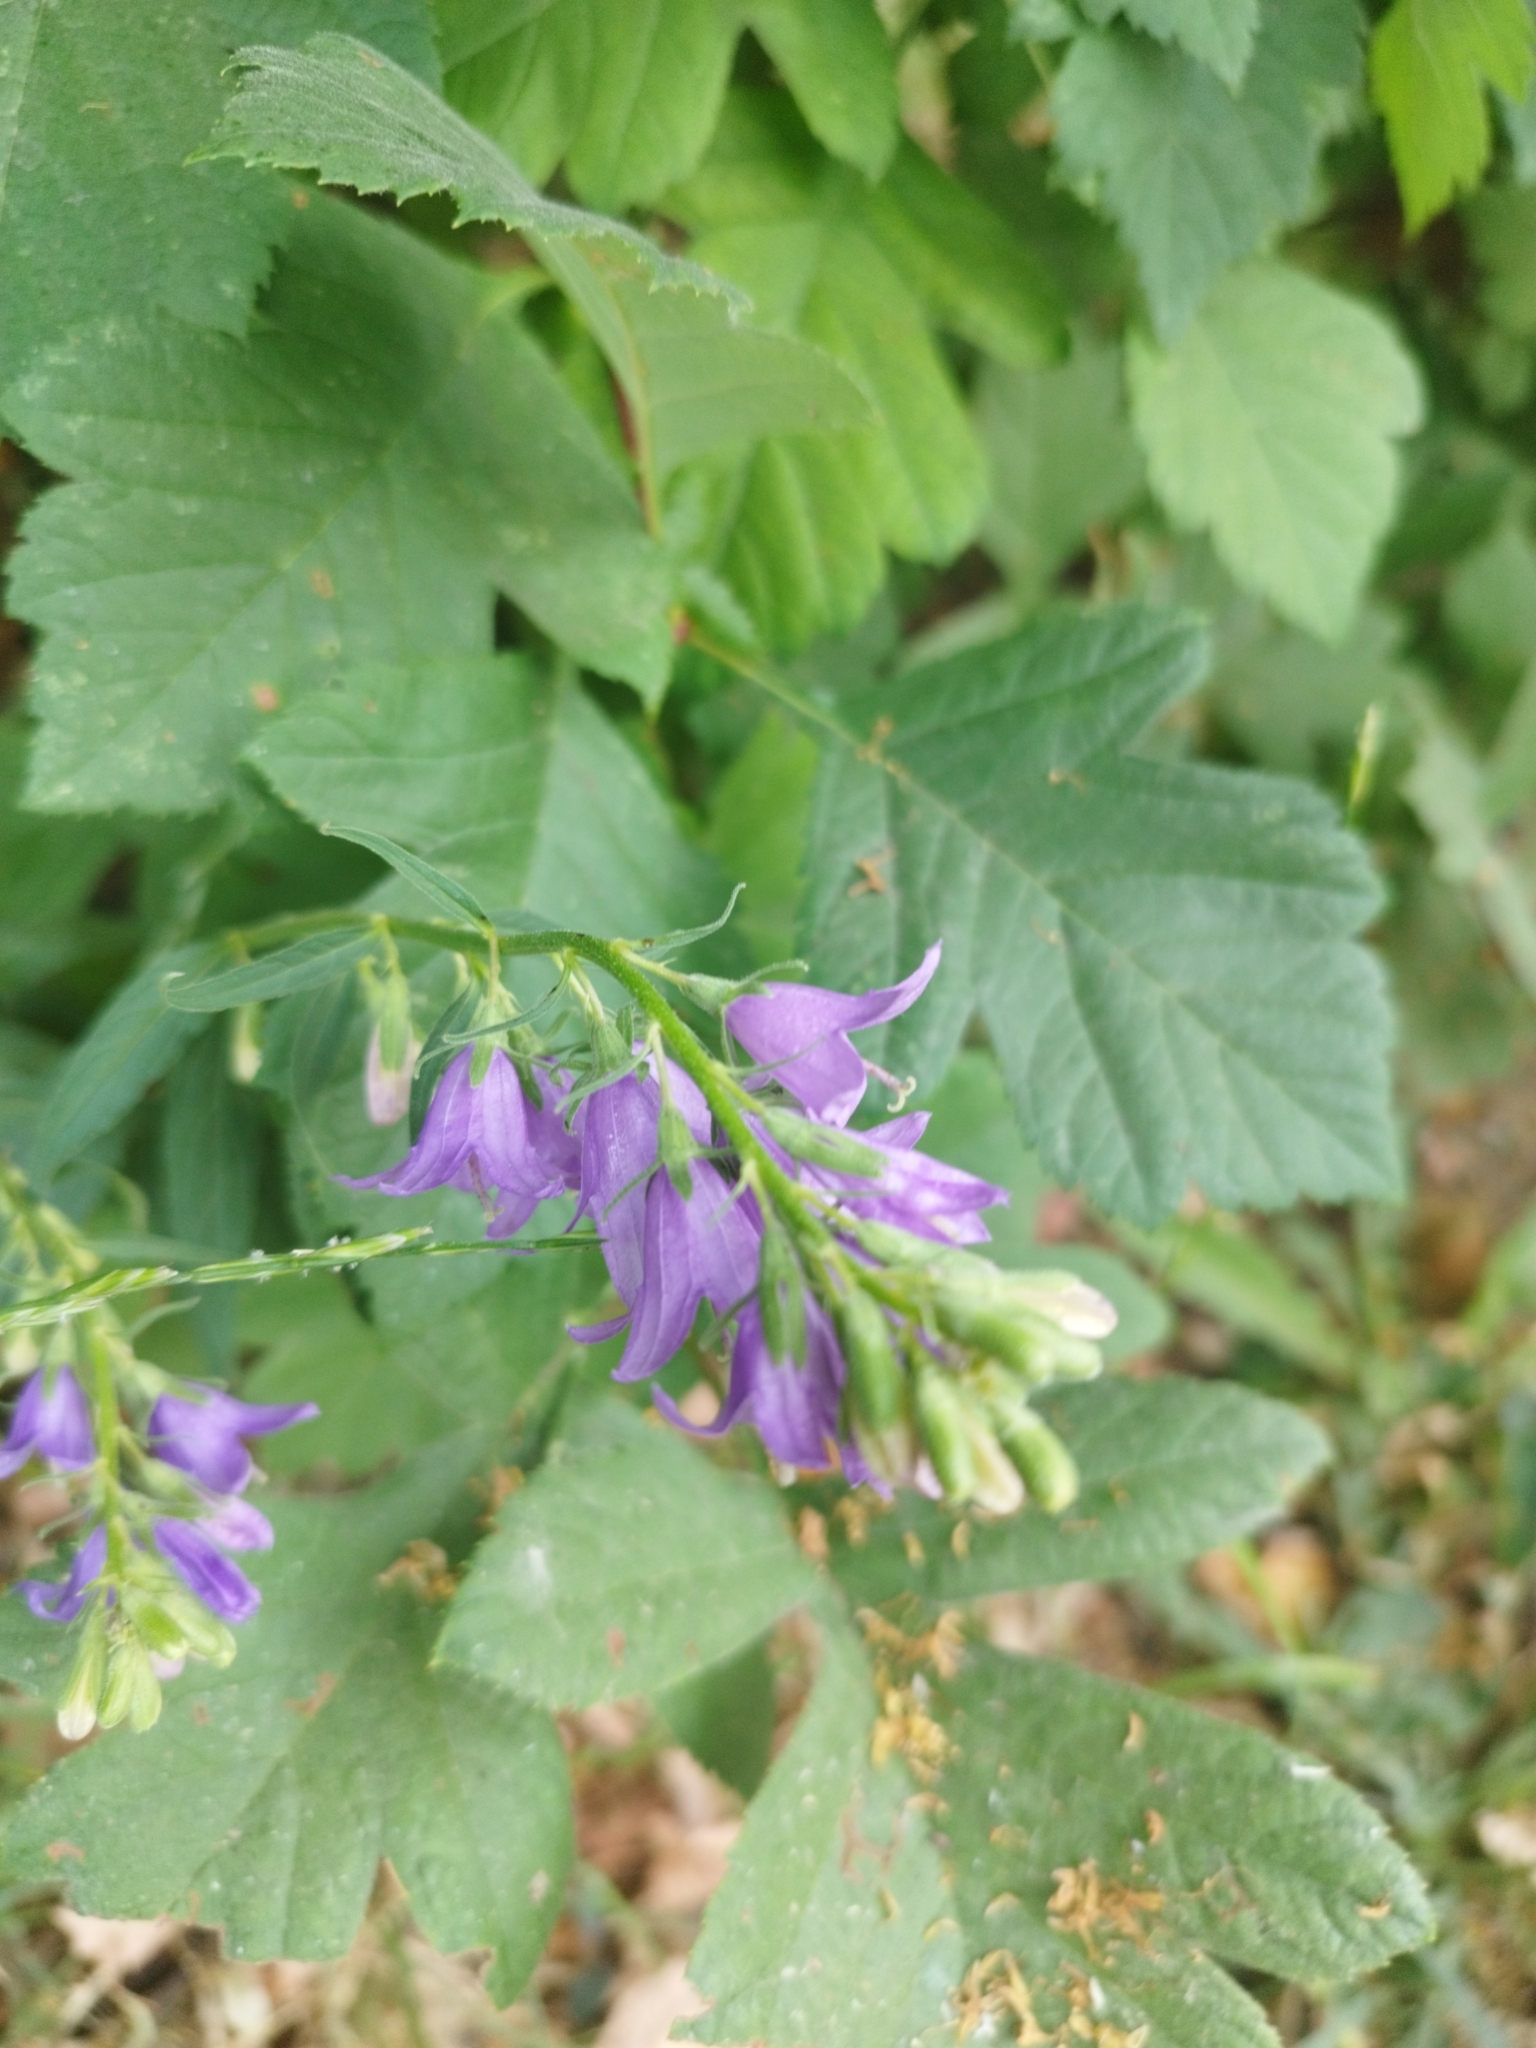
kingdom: Plantae
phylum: Tracheophyta
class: Magnoliopsida
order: Asterales
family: Campanulaceae
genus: Campanula
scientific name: Campanula rapunculoides
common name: Creeping bellflower
